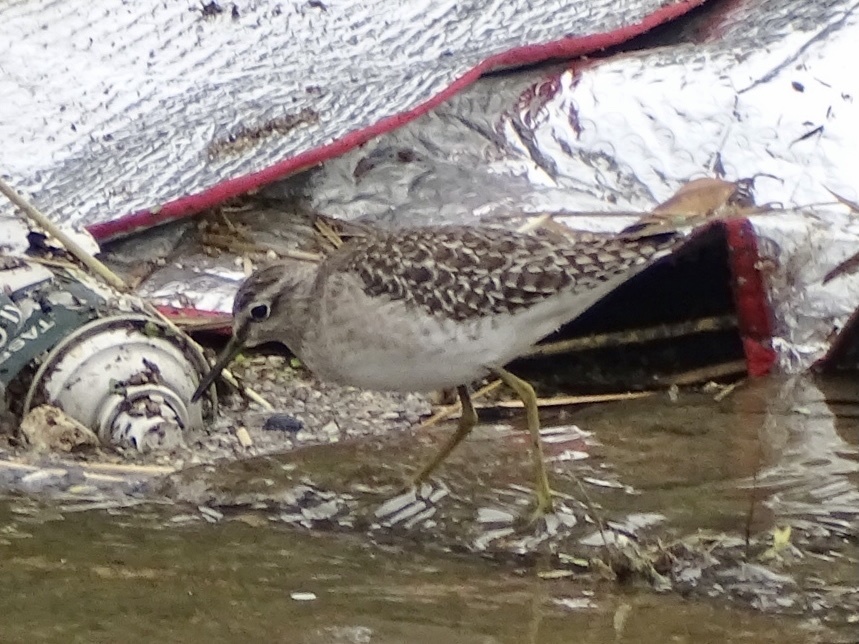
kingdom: Animalia
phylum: Chordata
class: Aves
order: Charadriiformes
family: Scolopacidae
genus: Tringa
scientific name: Tringa glareola
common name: Wood sandpiper
